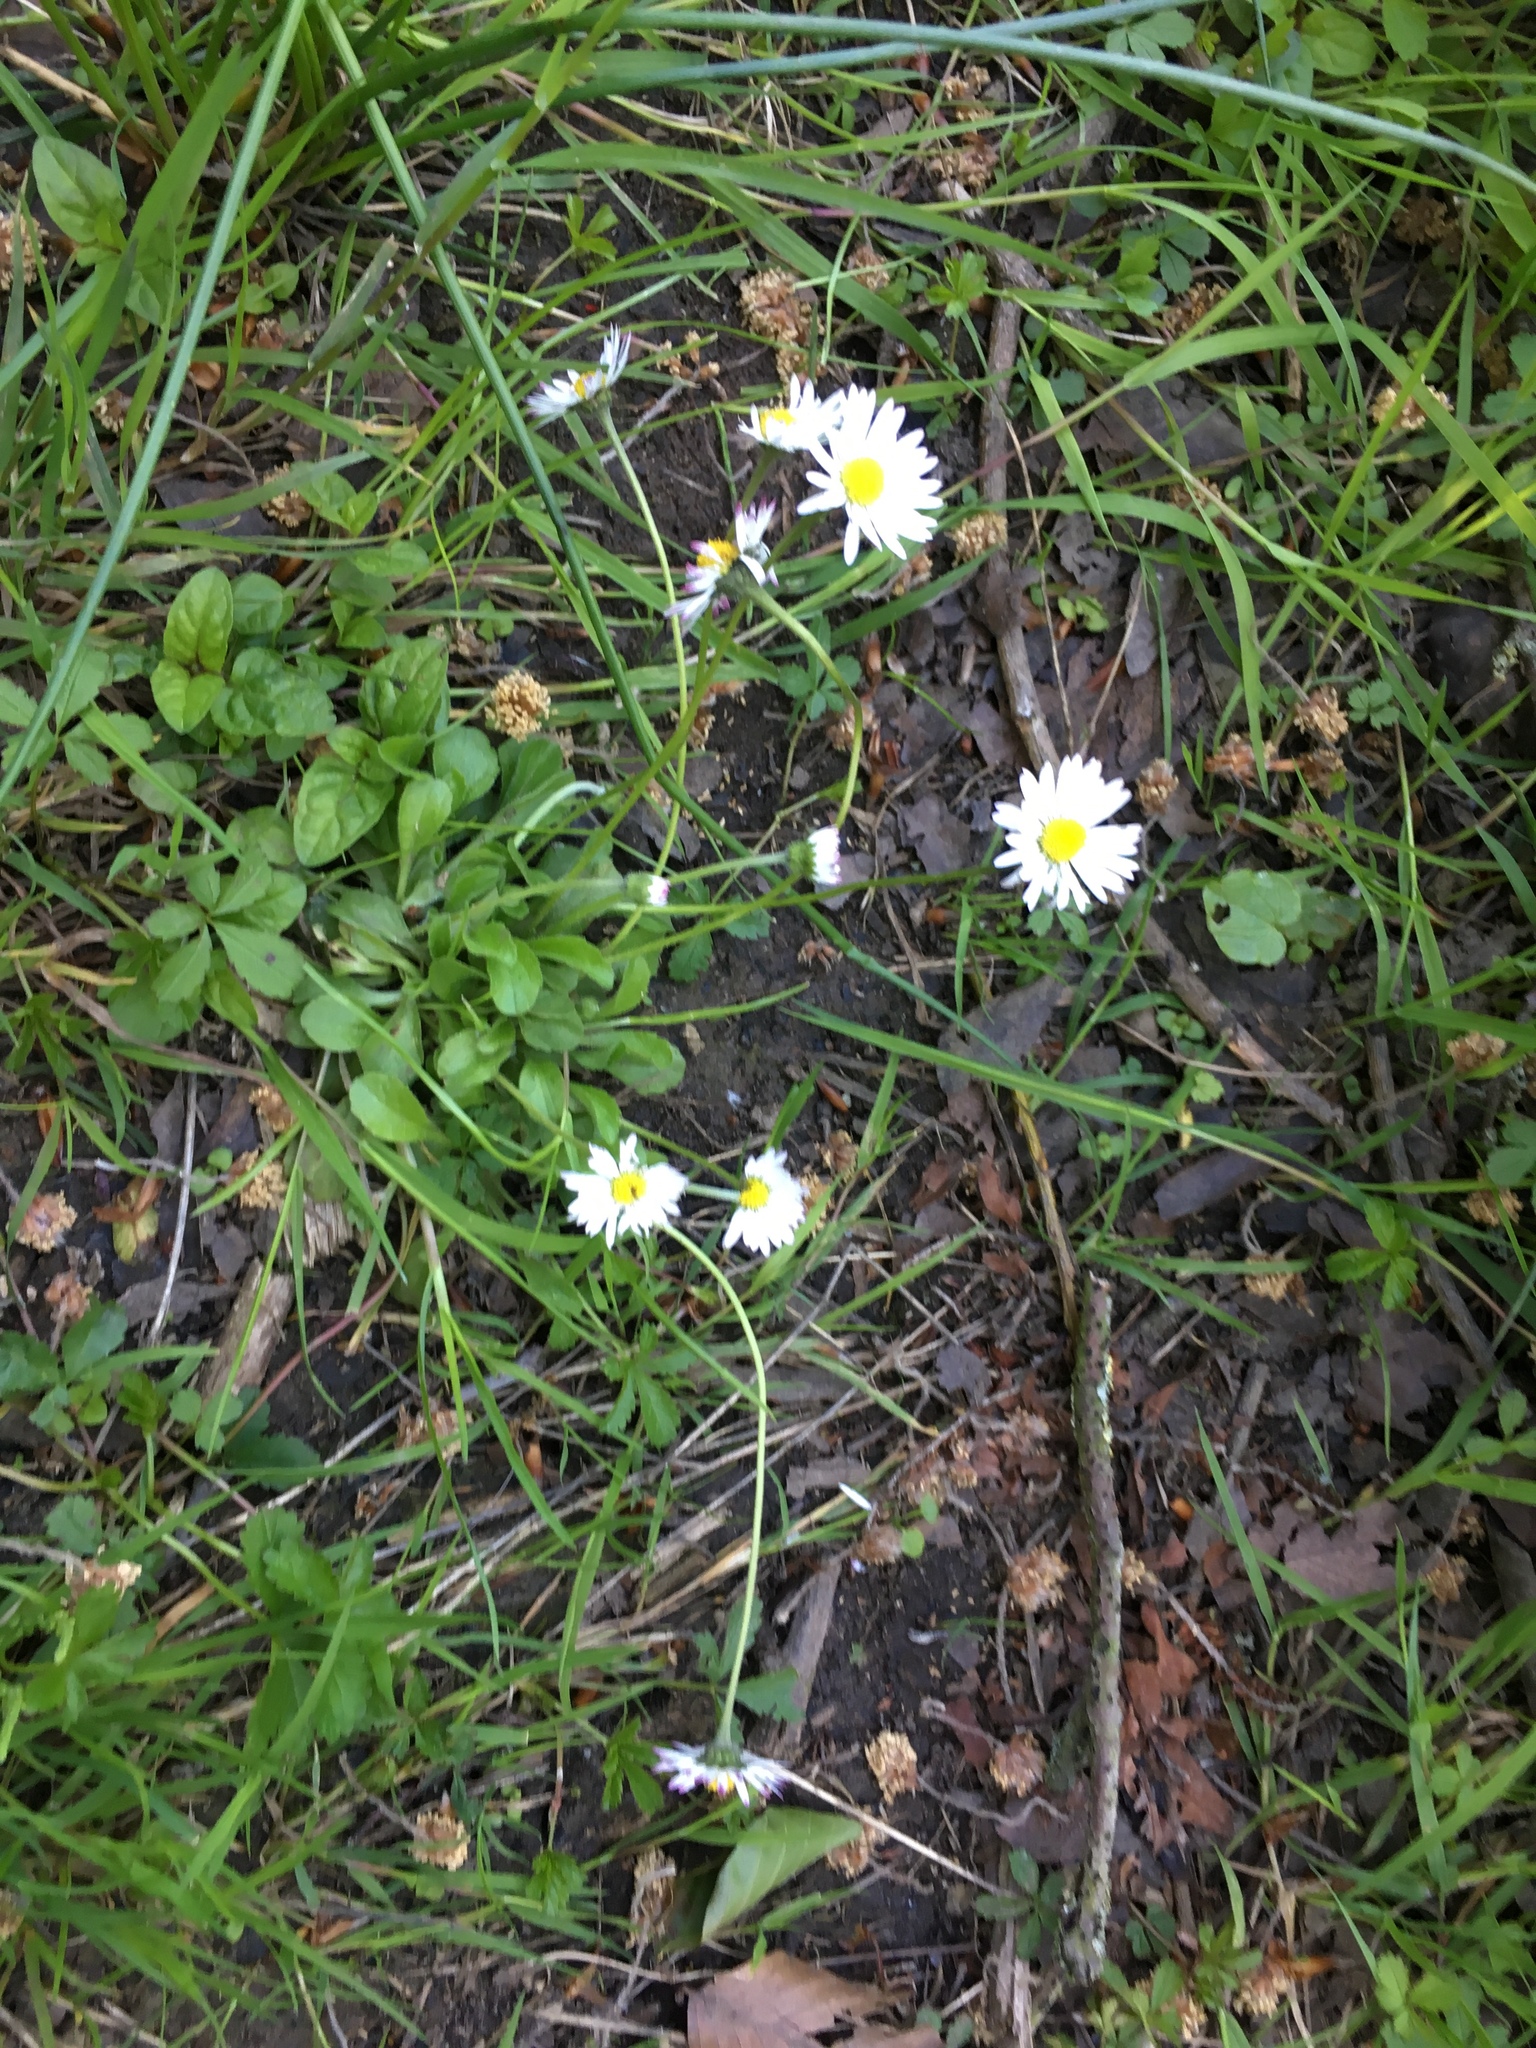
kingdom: Plantae
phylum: Tracheophyta
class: Magnoliopsida
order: Asterales
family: Asteraceae
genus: Bellis
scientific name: Bellis perennis
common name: Lawndaisy
